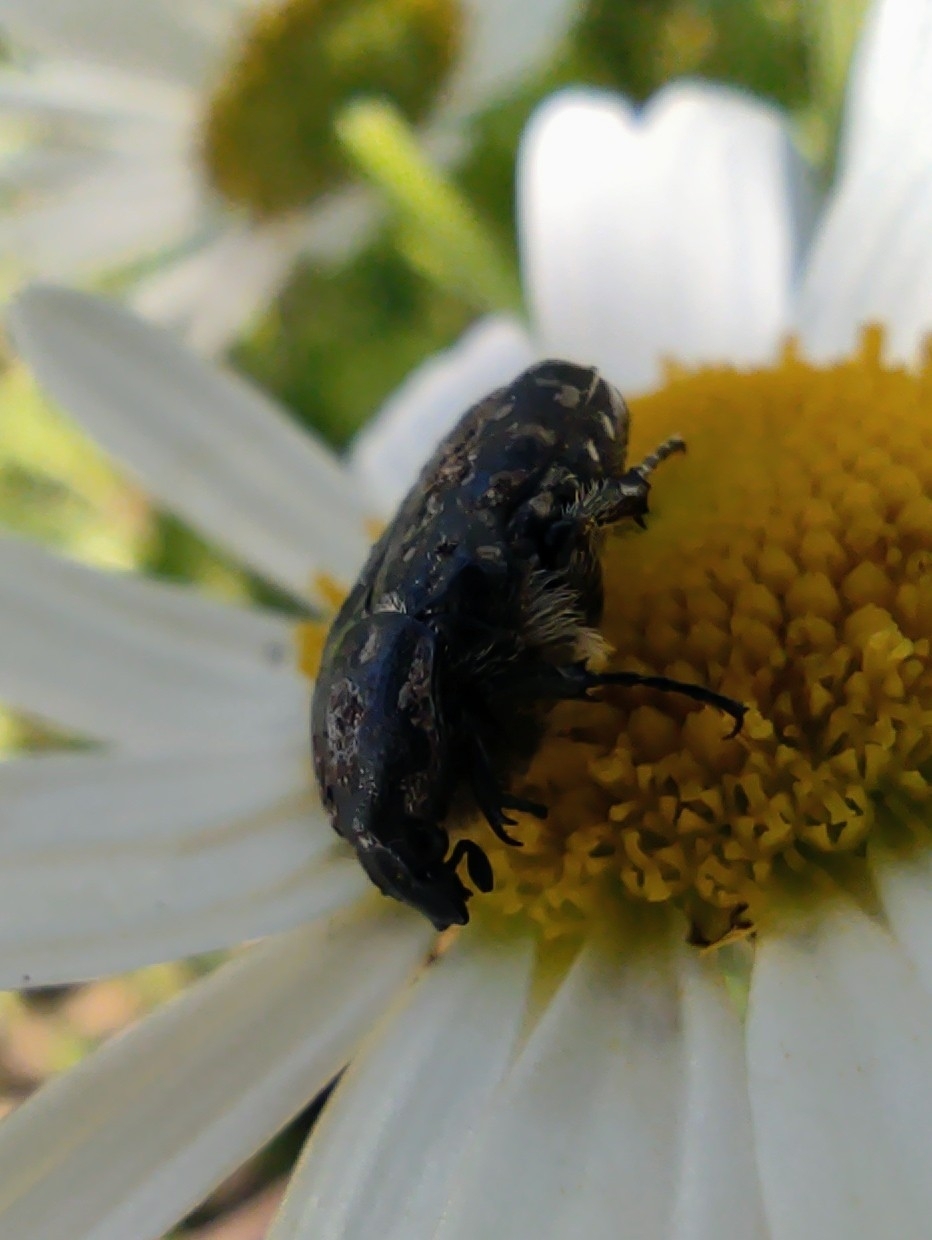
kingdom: Animalia
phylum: Arthropoda
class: Insecta
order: Coleoptera
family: Scarabaeidae
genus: Oxythyrea
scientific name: Oxythyrea funesta
